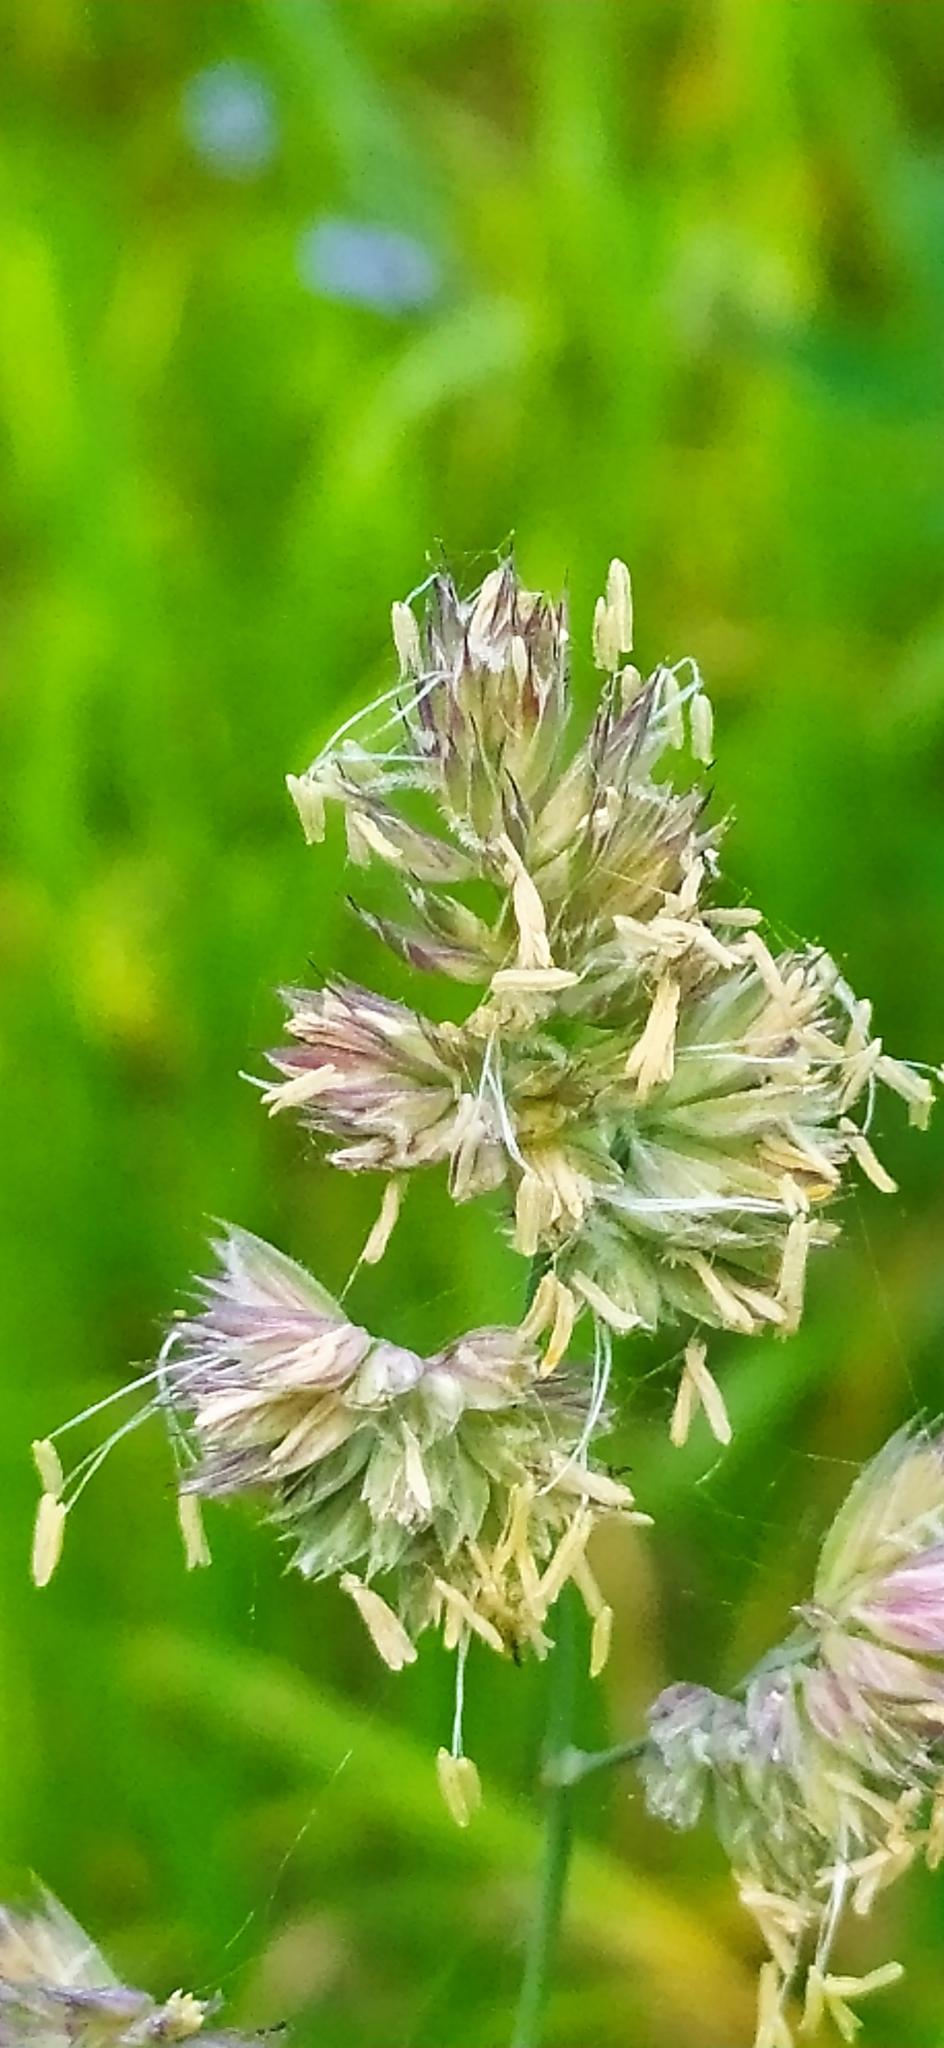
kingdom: Plantae
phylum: Tracheophyta
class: Liliopsida
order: Poales
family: Poaceae
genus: Dactylis
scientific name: Dactylis glomerata
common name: Orchardgrass
